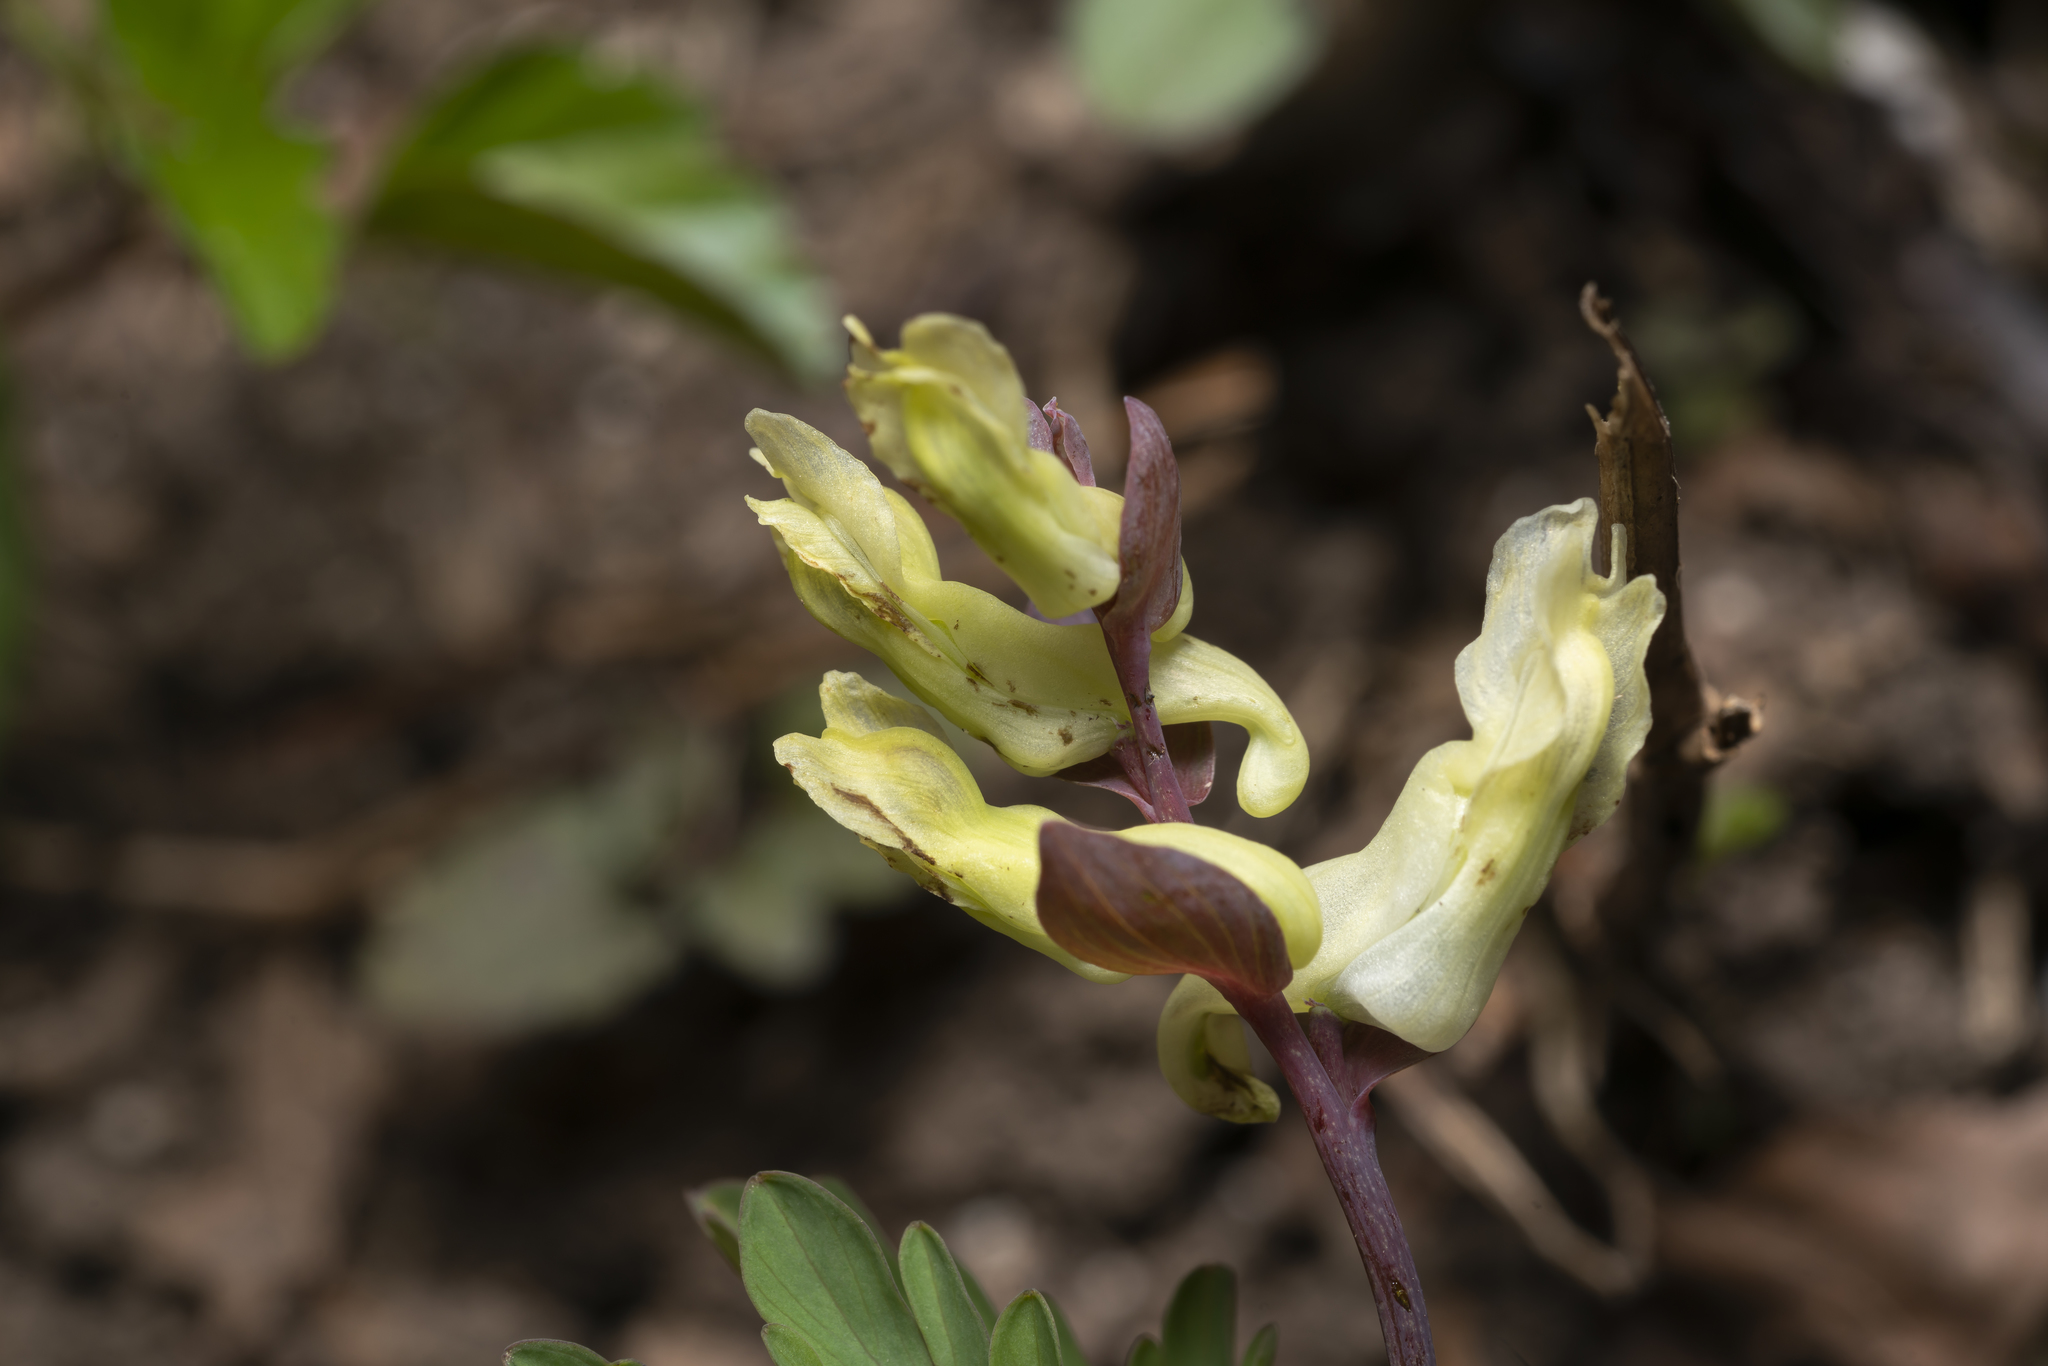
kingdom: Plantae
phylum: Tracheophyta
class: Magnoliopsida
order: Ranunculales
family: Papaveraceae
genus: Corydalis
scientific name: Corydalis cava
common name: Hollowroot
